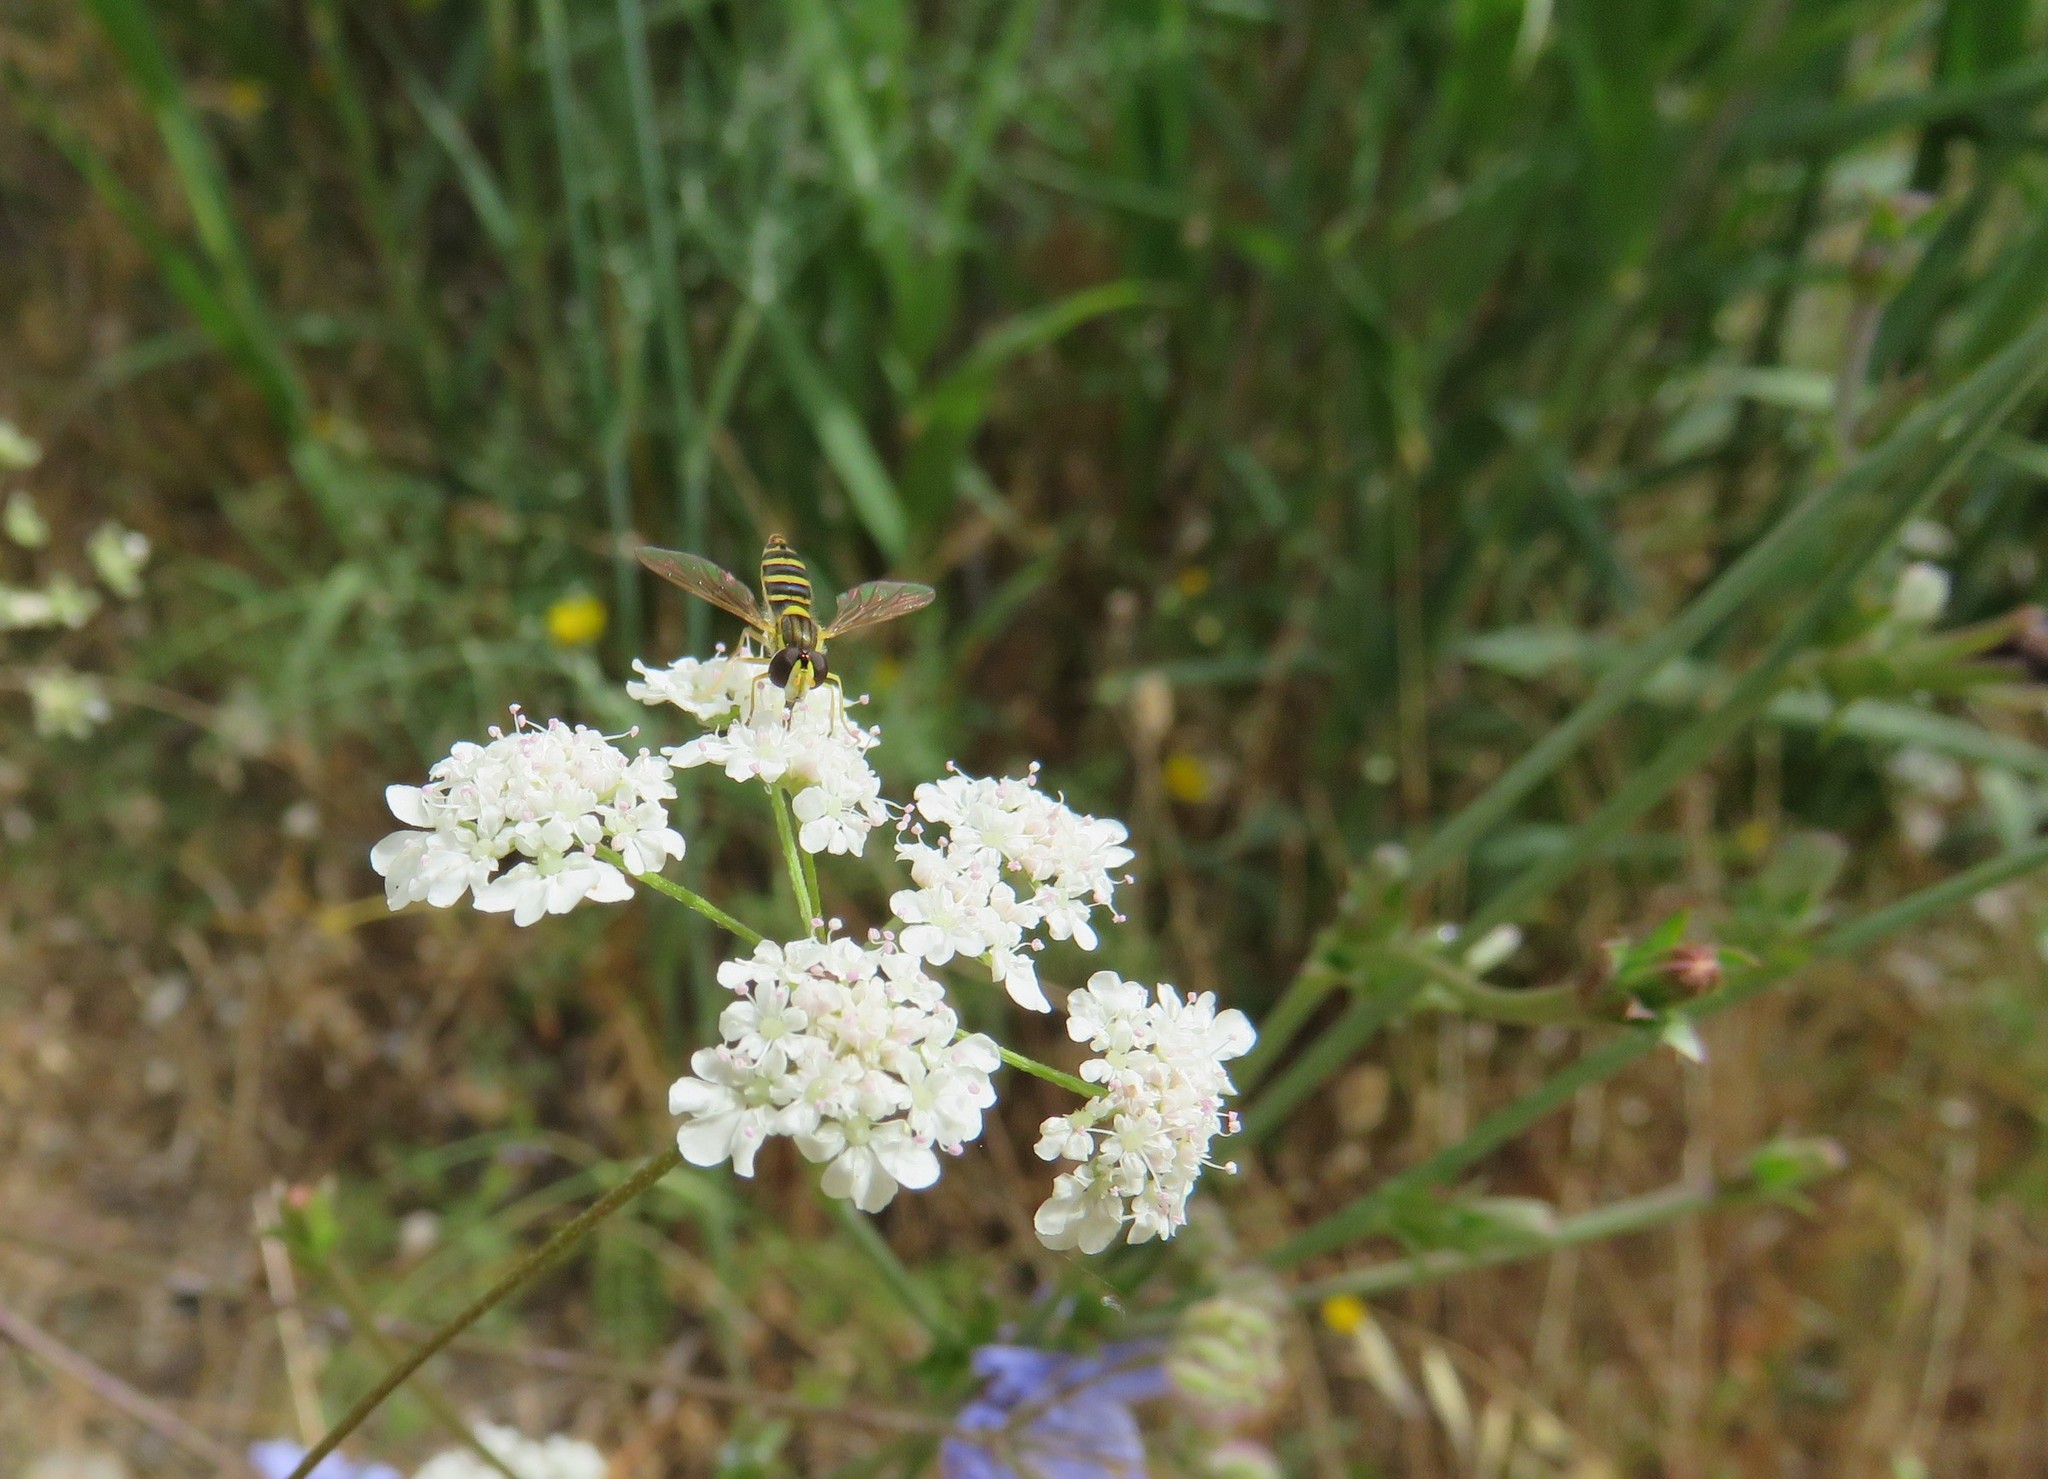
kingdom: Animalia
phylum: Arthropoda
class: Insecta
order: Diptera
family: Syrphidae
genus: Sphaerophoria
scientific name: Sphaerophoria
